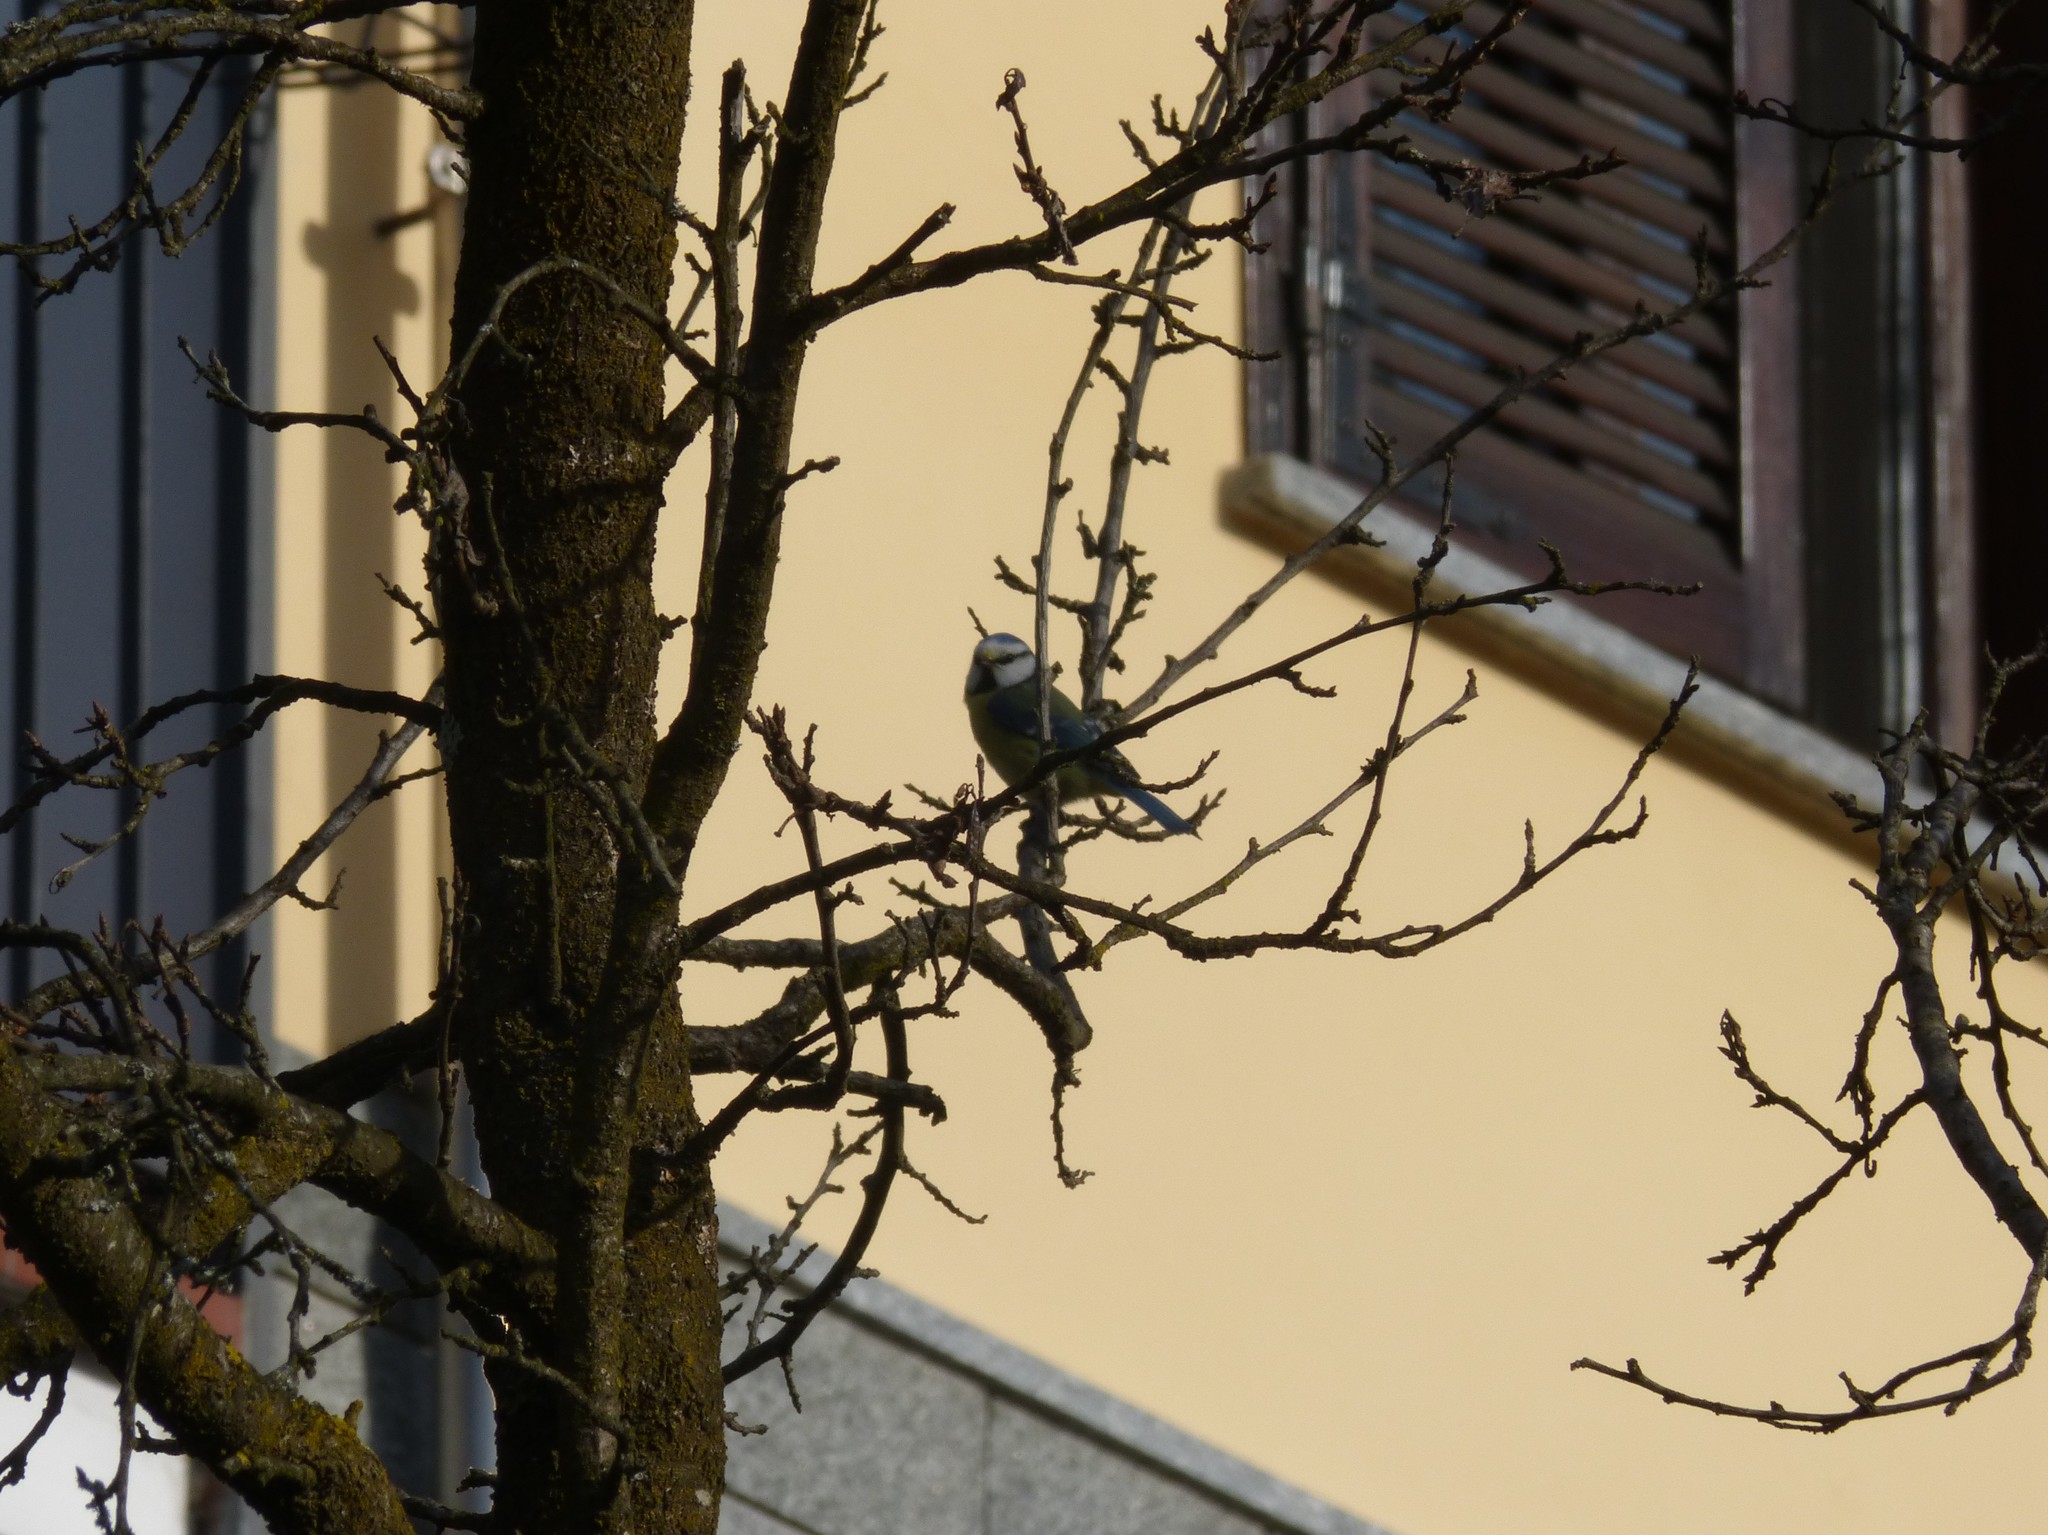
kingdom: Animalia
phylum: Chordata
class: Aves
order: Passeriformes
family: Paridae
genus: Cyanistes
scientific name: Cyanistes caeruleus
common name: Eurasian blue tit
